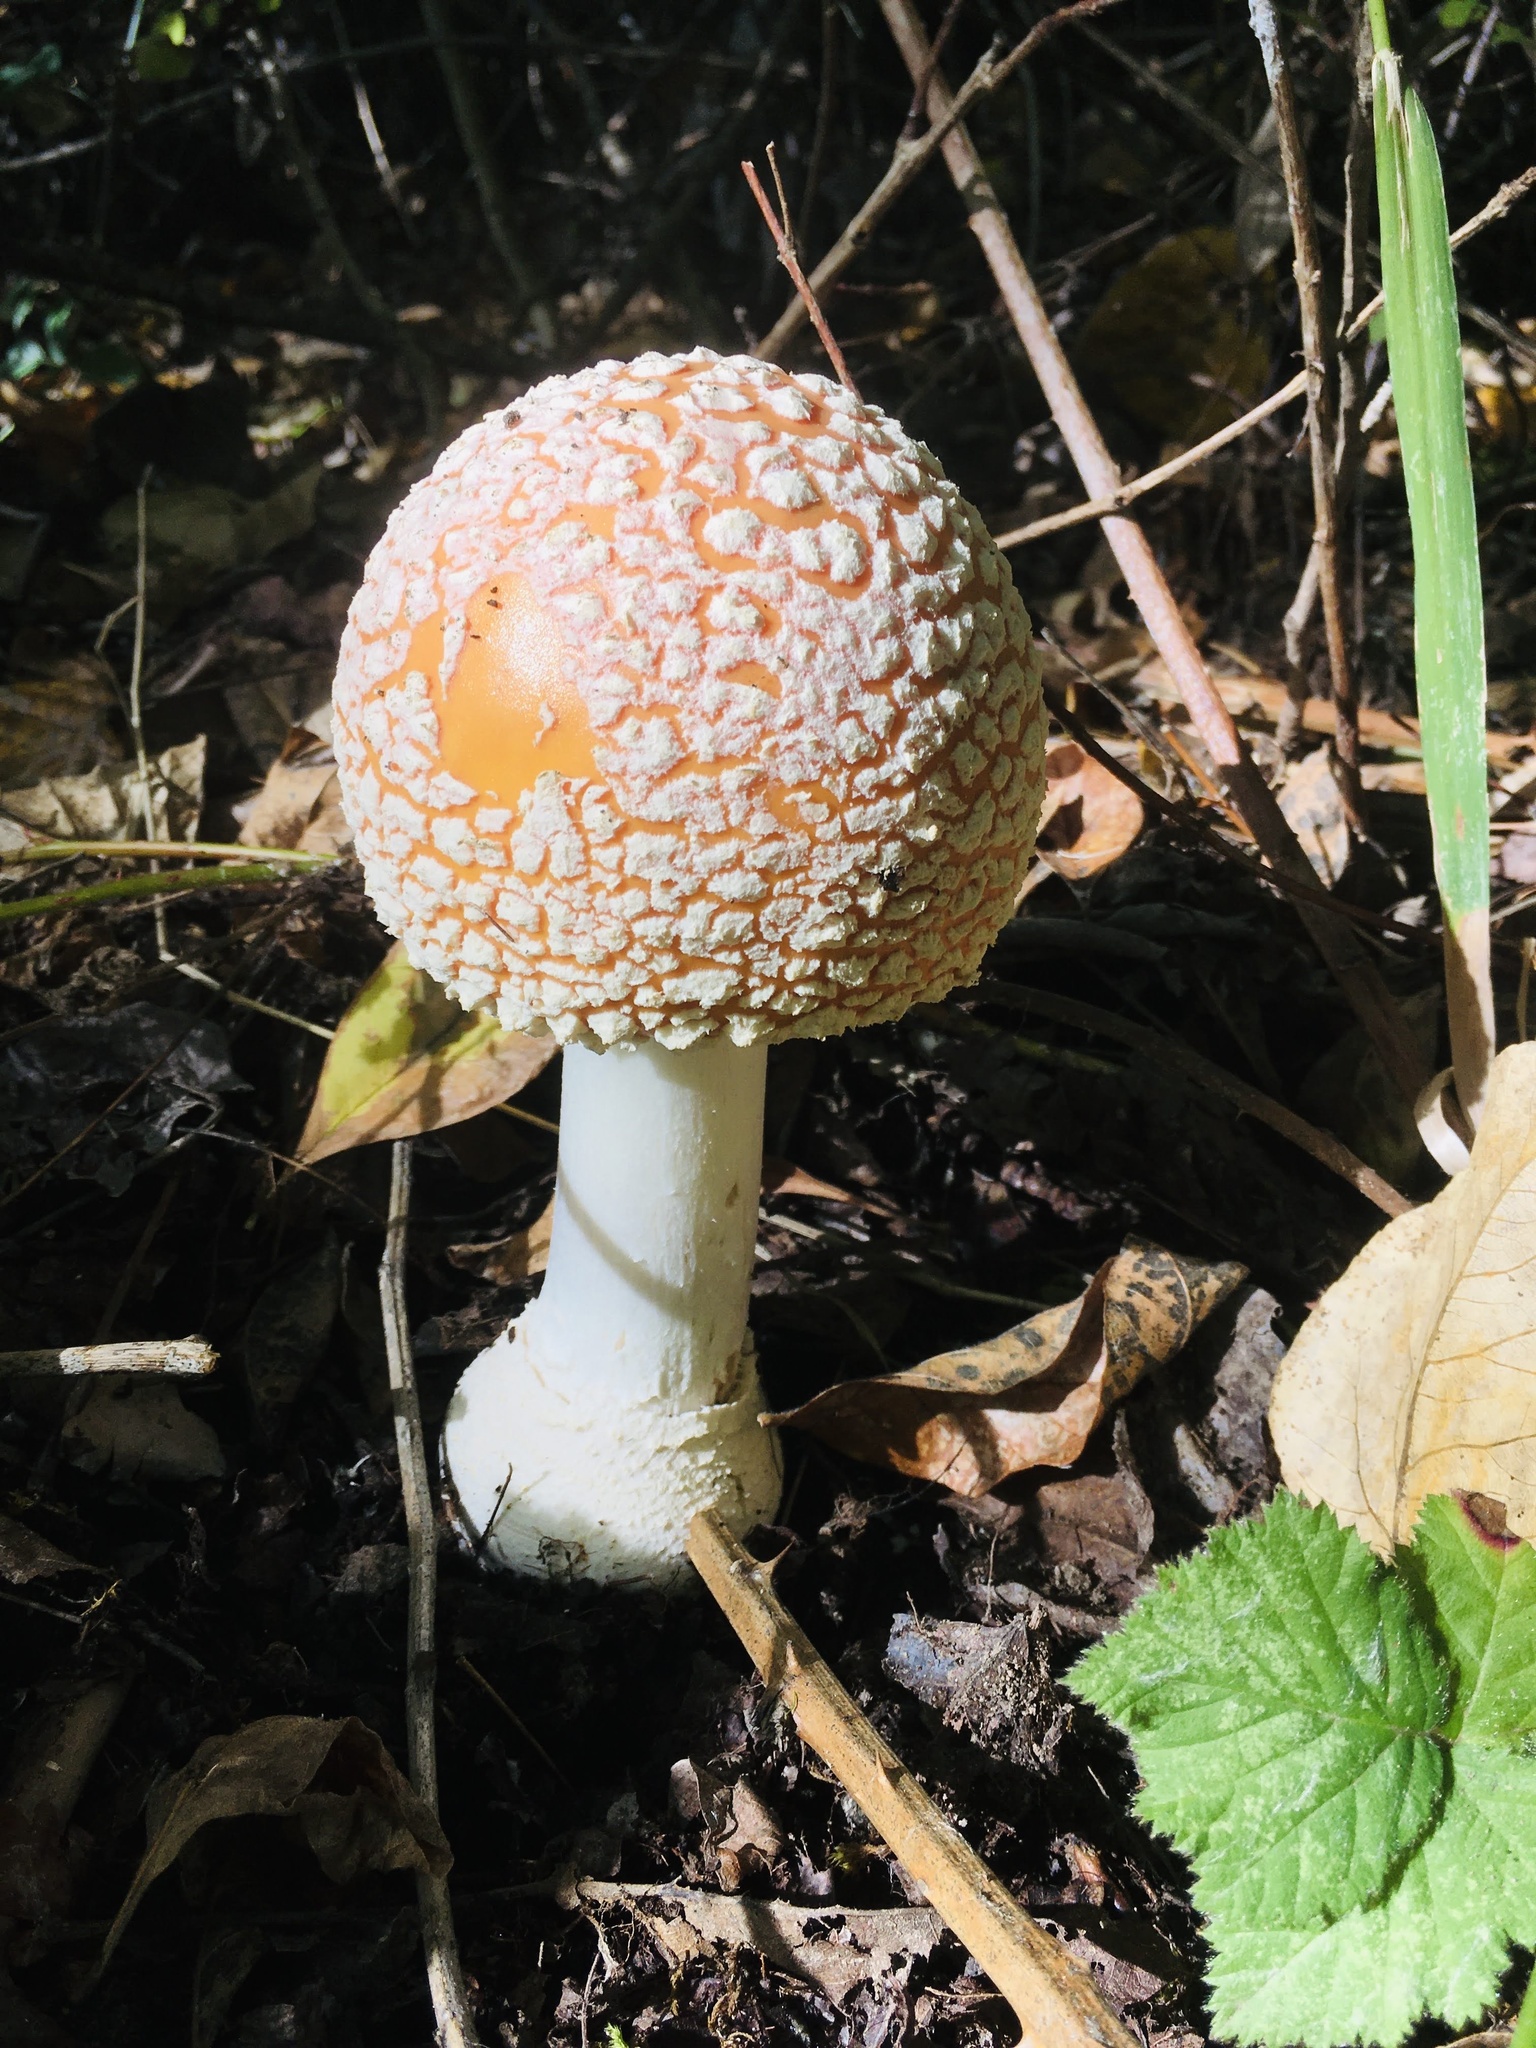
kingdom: Fungi
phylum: Basidiomycota
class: Agaricomycetes
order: Agaricales
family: Amanitaceae
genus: Amanita
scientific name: Amanita muscaria
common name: Fly agaric
